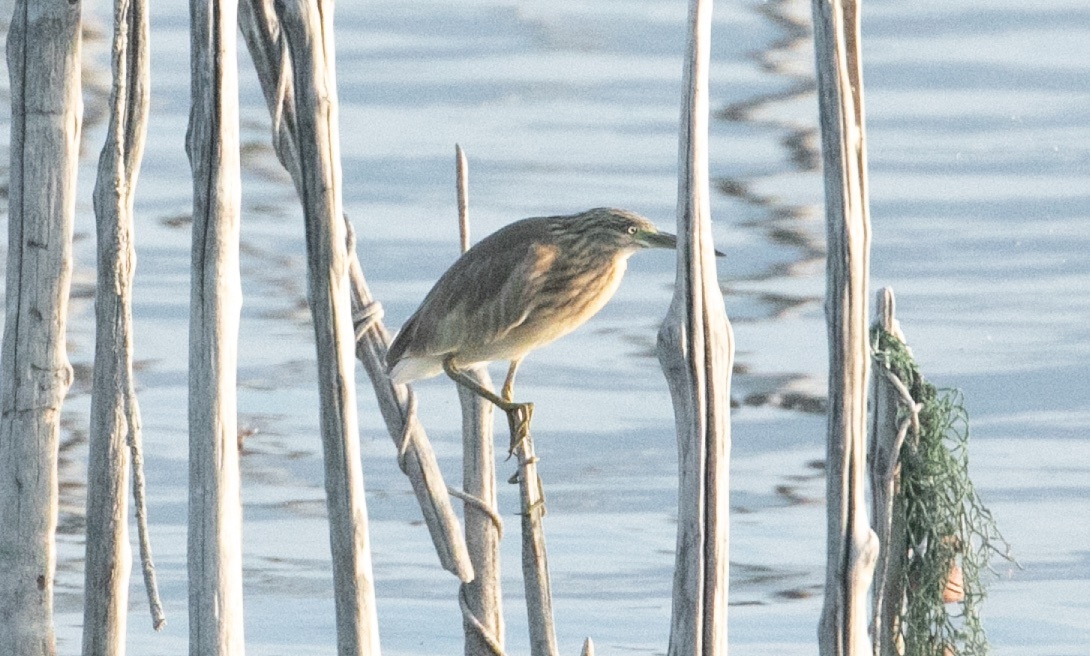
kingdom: Animalia
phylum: Chordata
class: Aves
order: Pelecaniformes
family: Ardeidae
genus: Ardeola
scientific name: Ardeola ralloides
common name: Squacco heron
